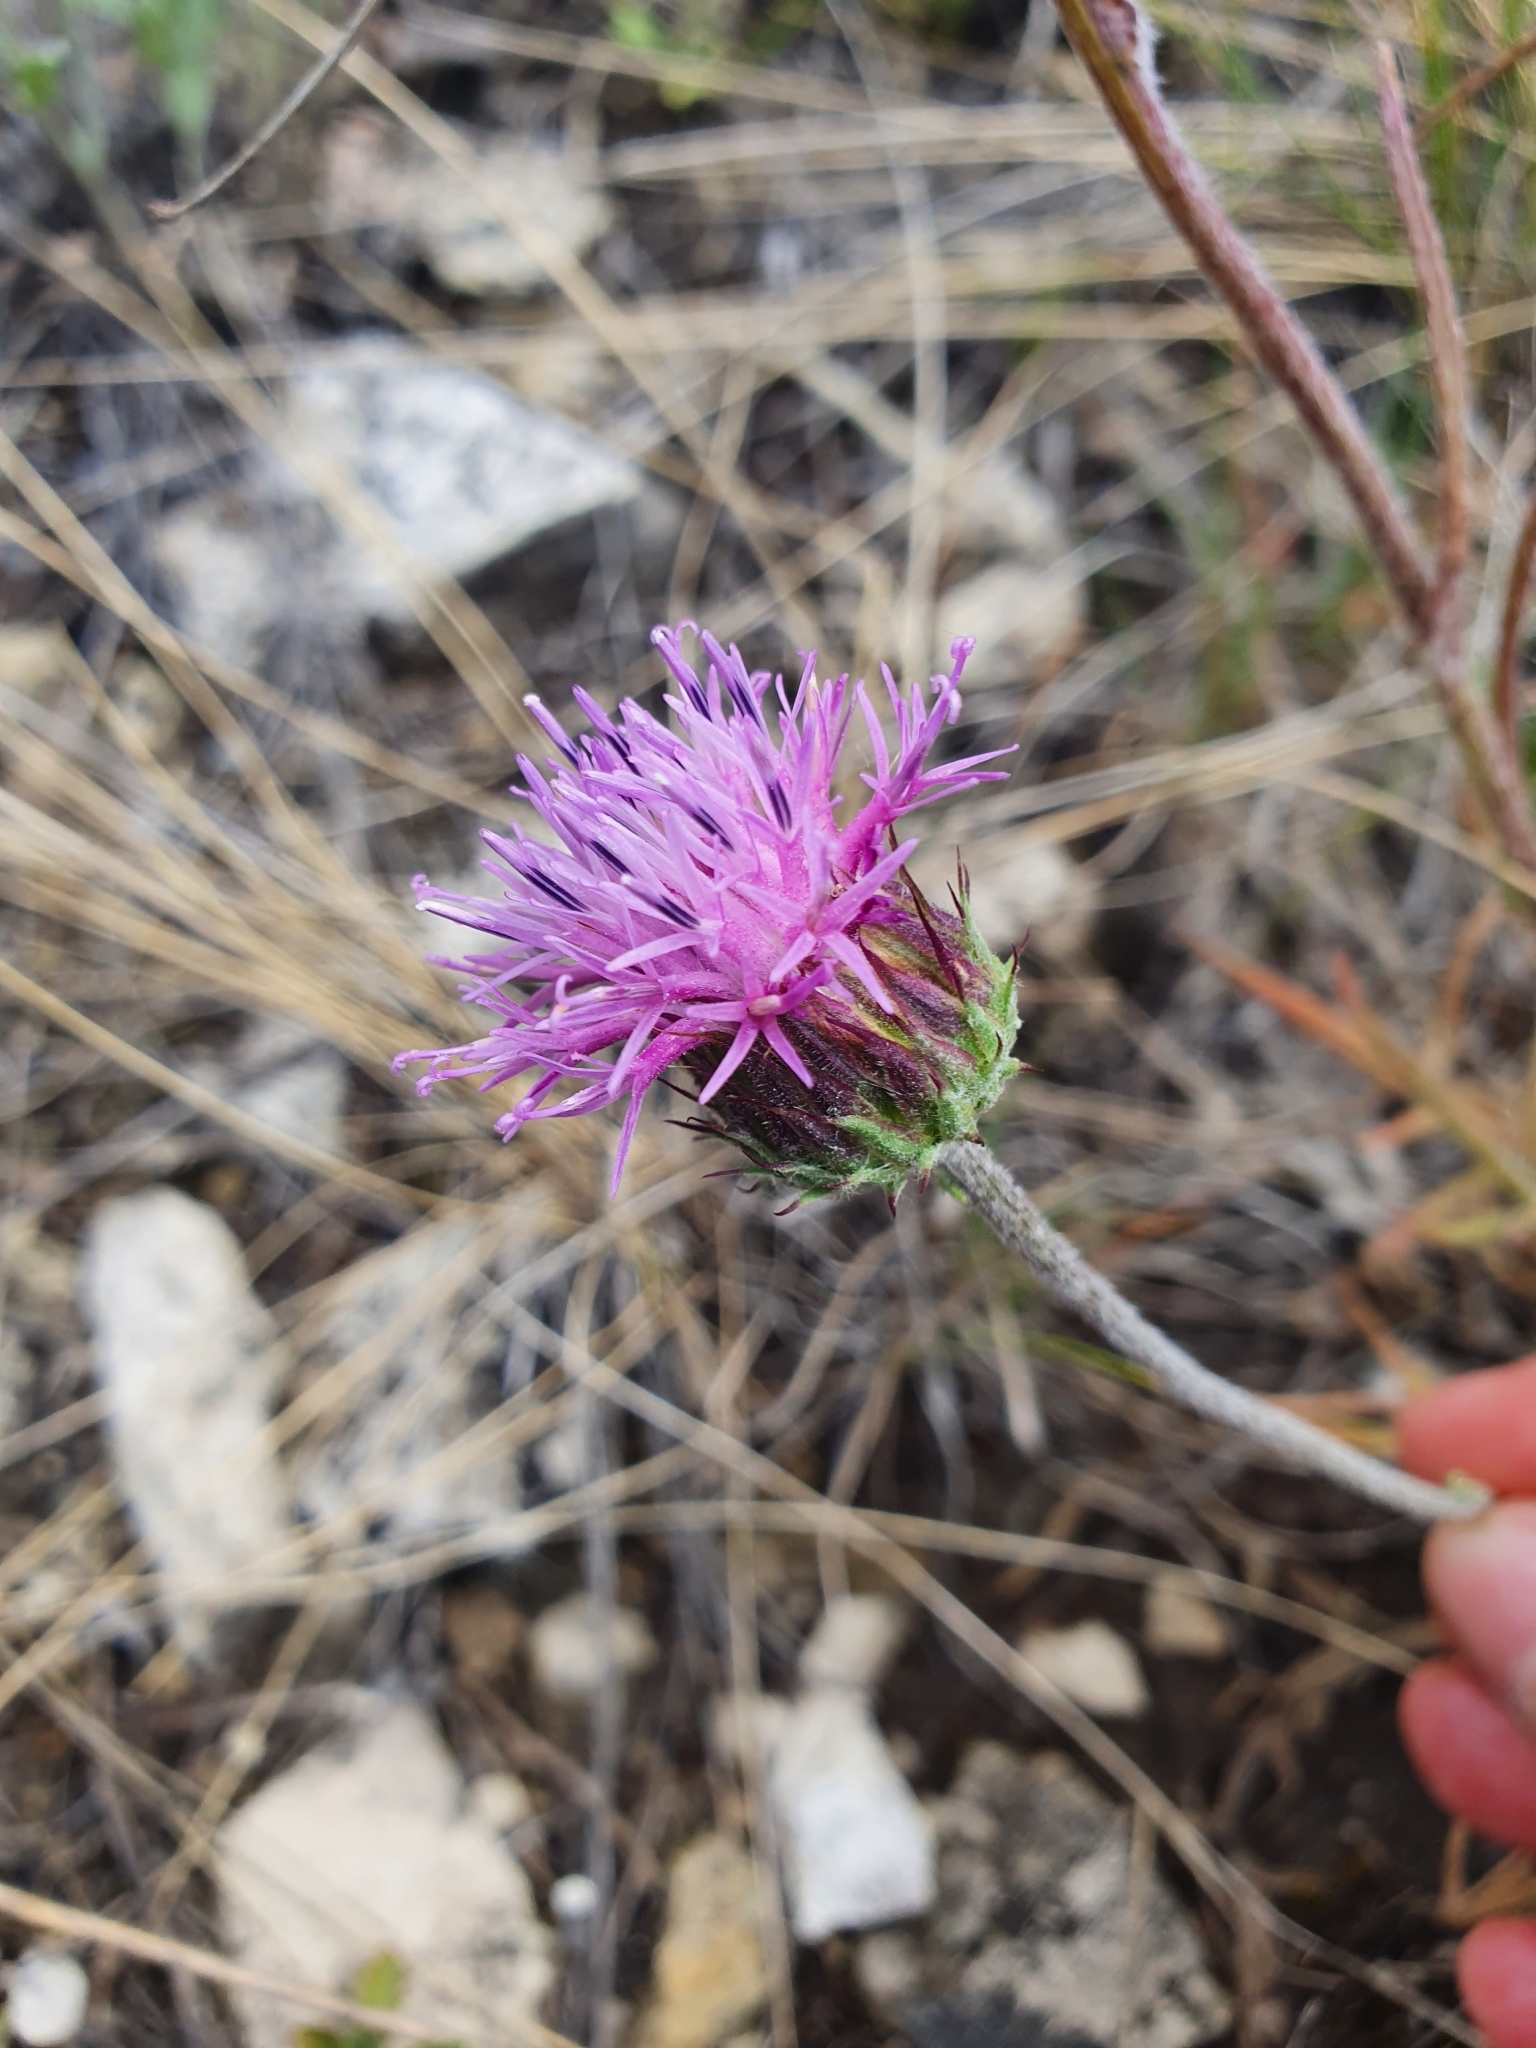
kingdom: Plantae
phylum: Tracheophyta
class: Magnoliopsida
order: Asterales
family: Asteraceae
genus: Jurinea
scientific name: Jurinea ledebourii
